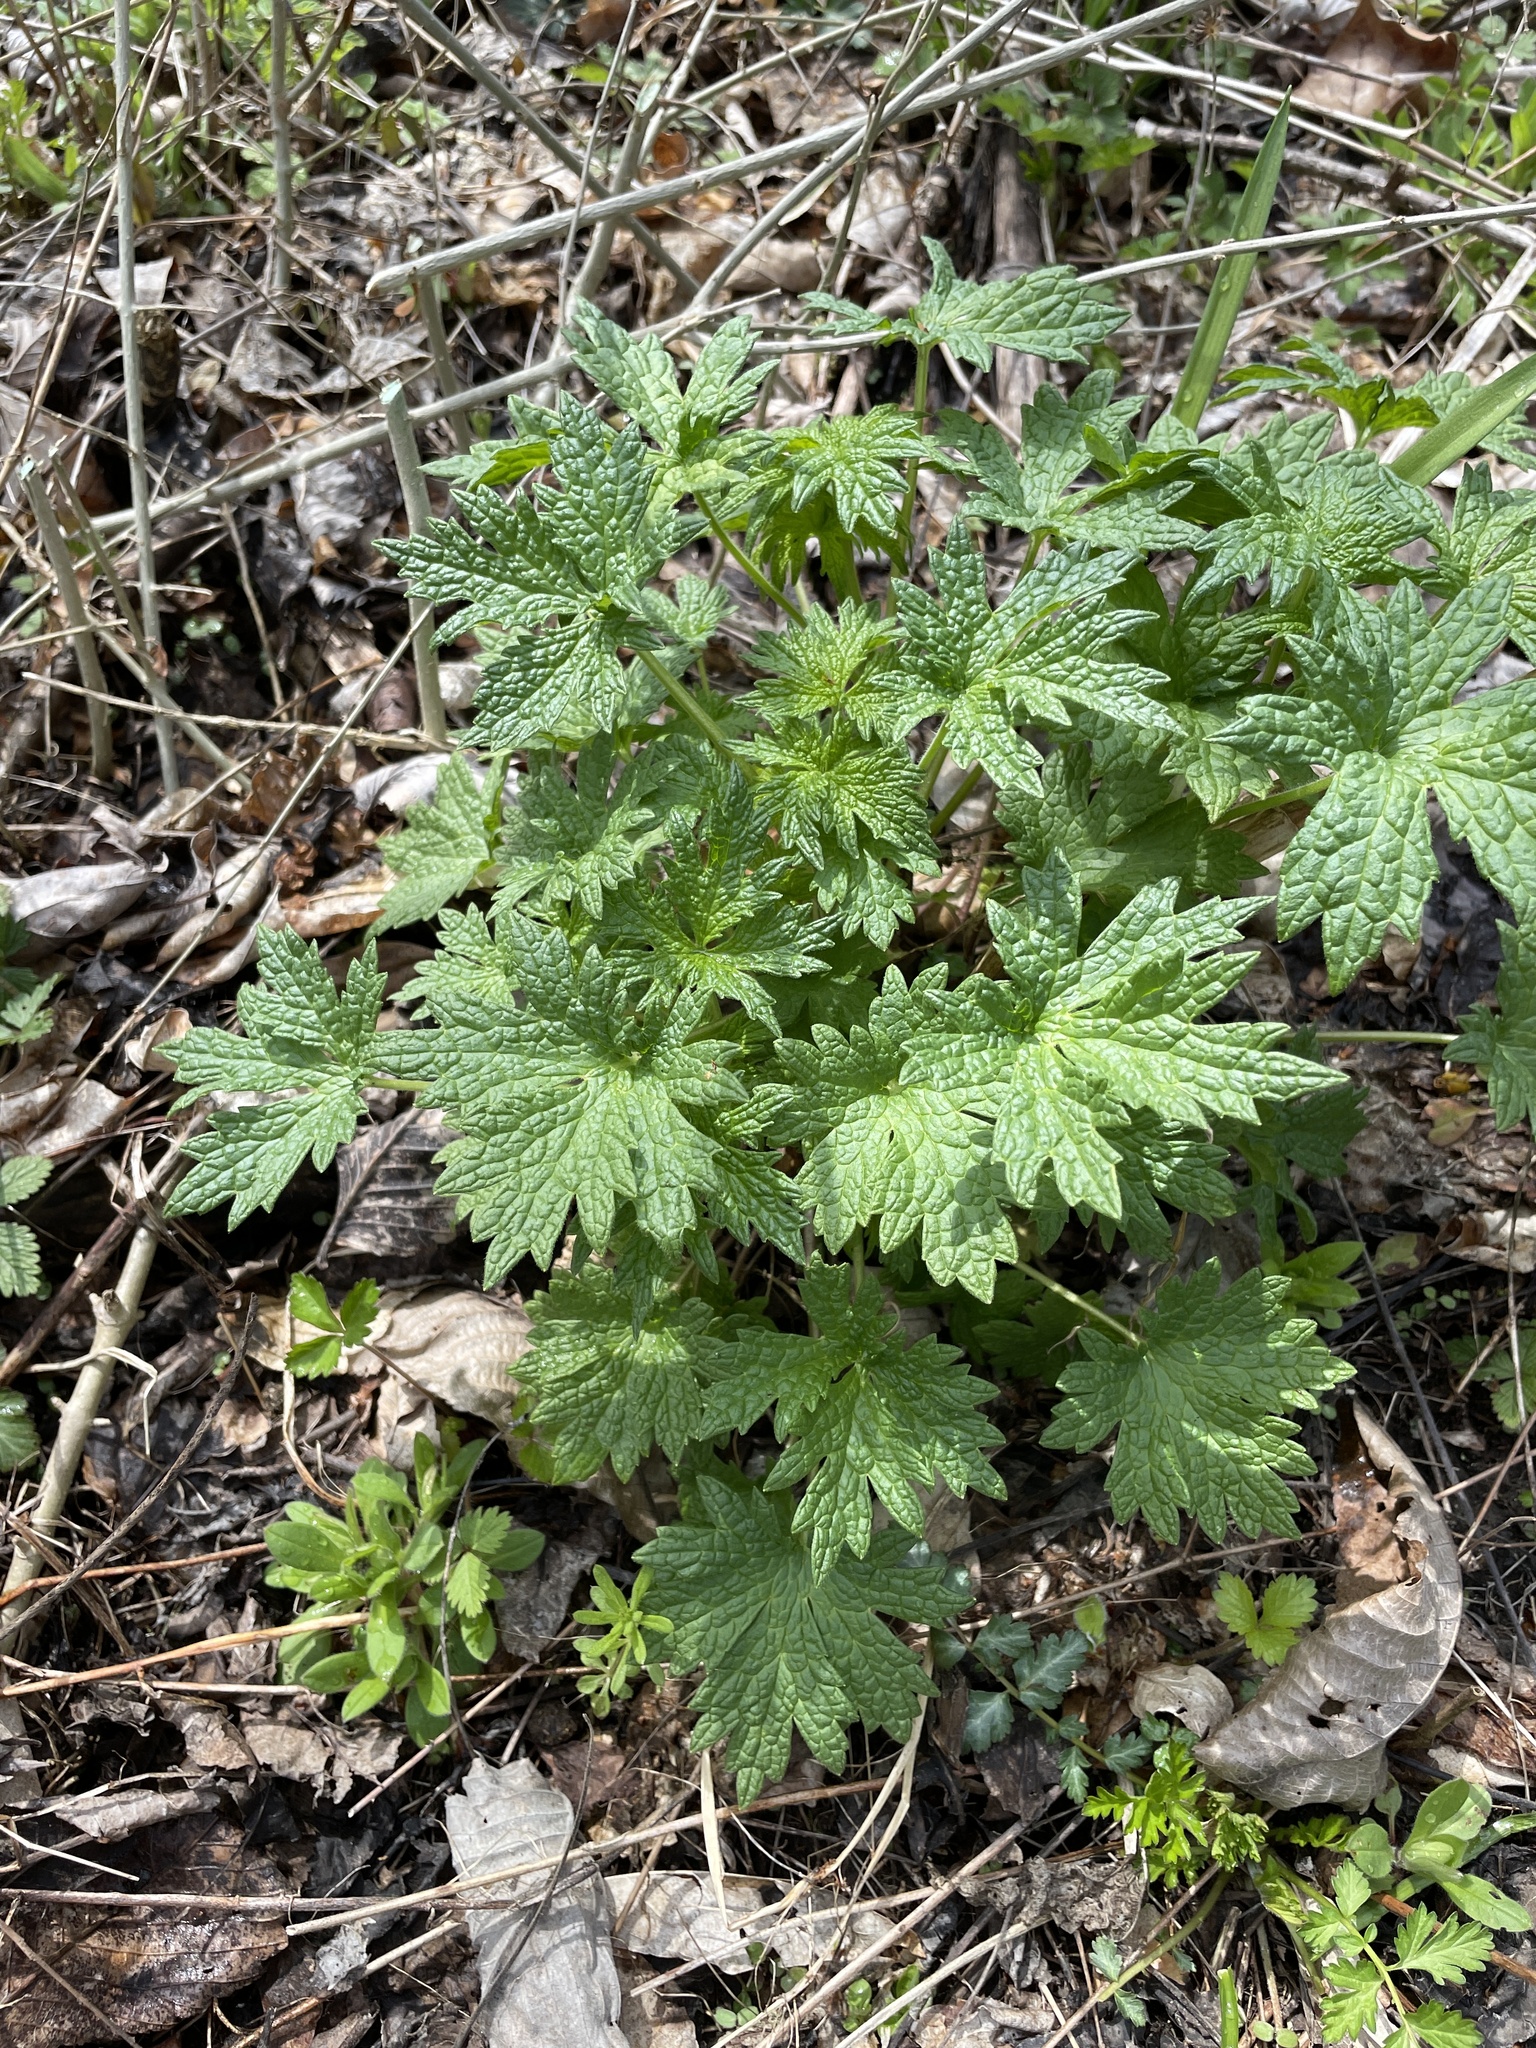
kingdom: Plantae
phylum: Tracheophyta
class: Magnoliopsida
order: Lamiales
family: Lamiaceae
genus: Leonurus
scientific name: Leonurus cardiaca
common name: Motherwort
